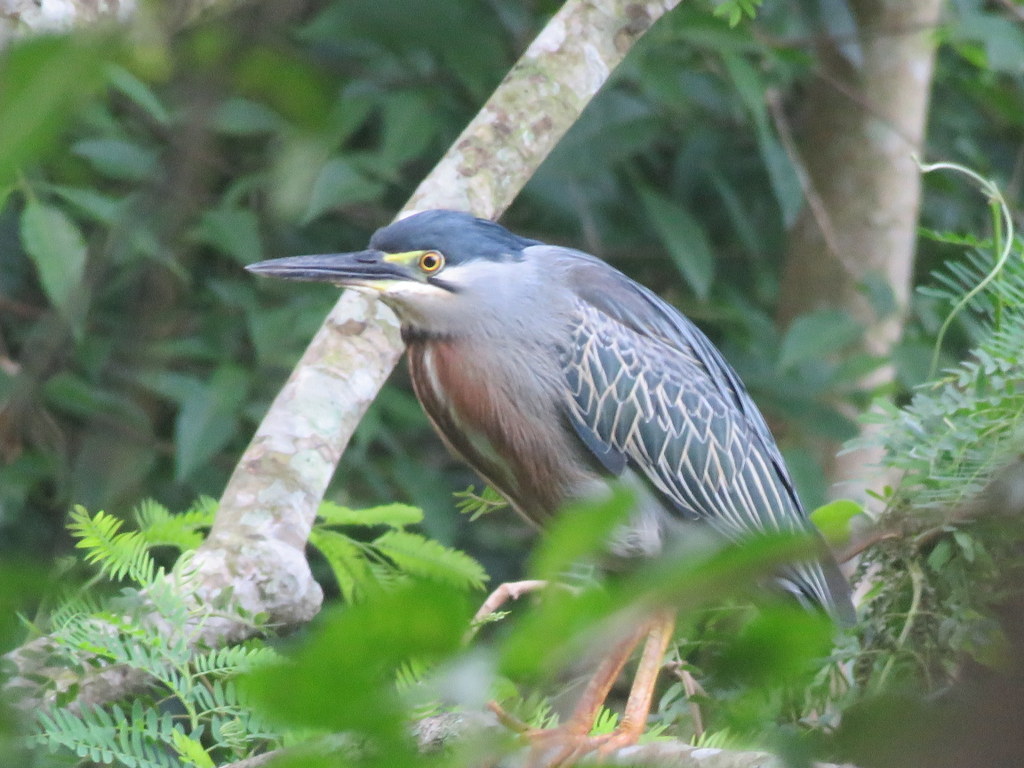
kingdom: Animalia
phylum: Chordata
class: Aves
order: Pelecaniformes
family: Ardeidae
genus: Butorides
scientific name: Butorides striata
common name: Striated heron
